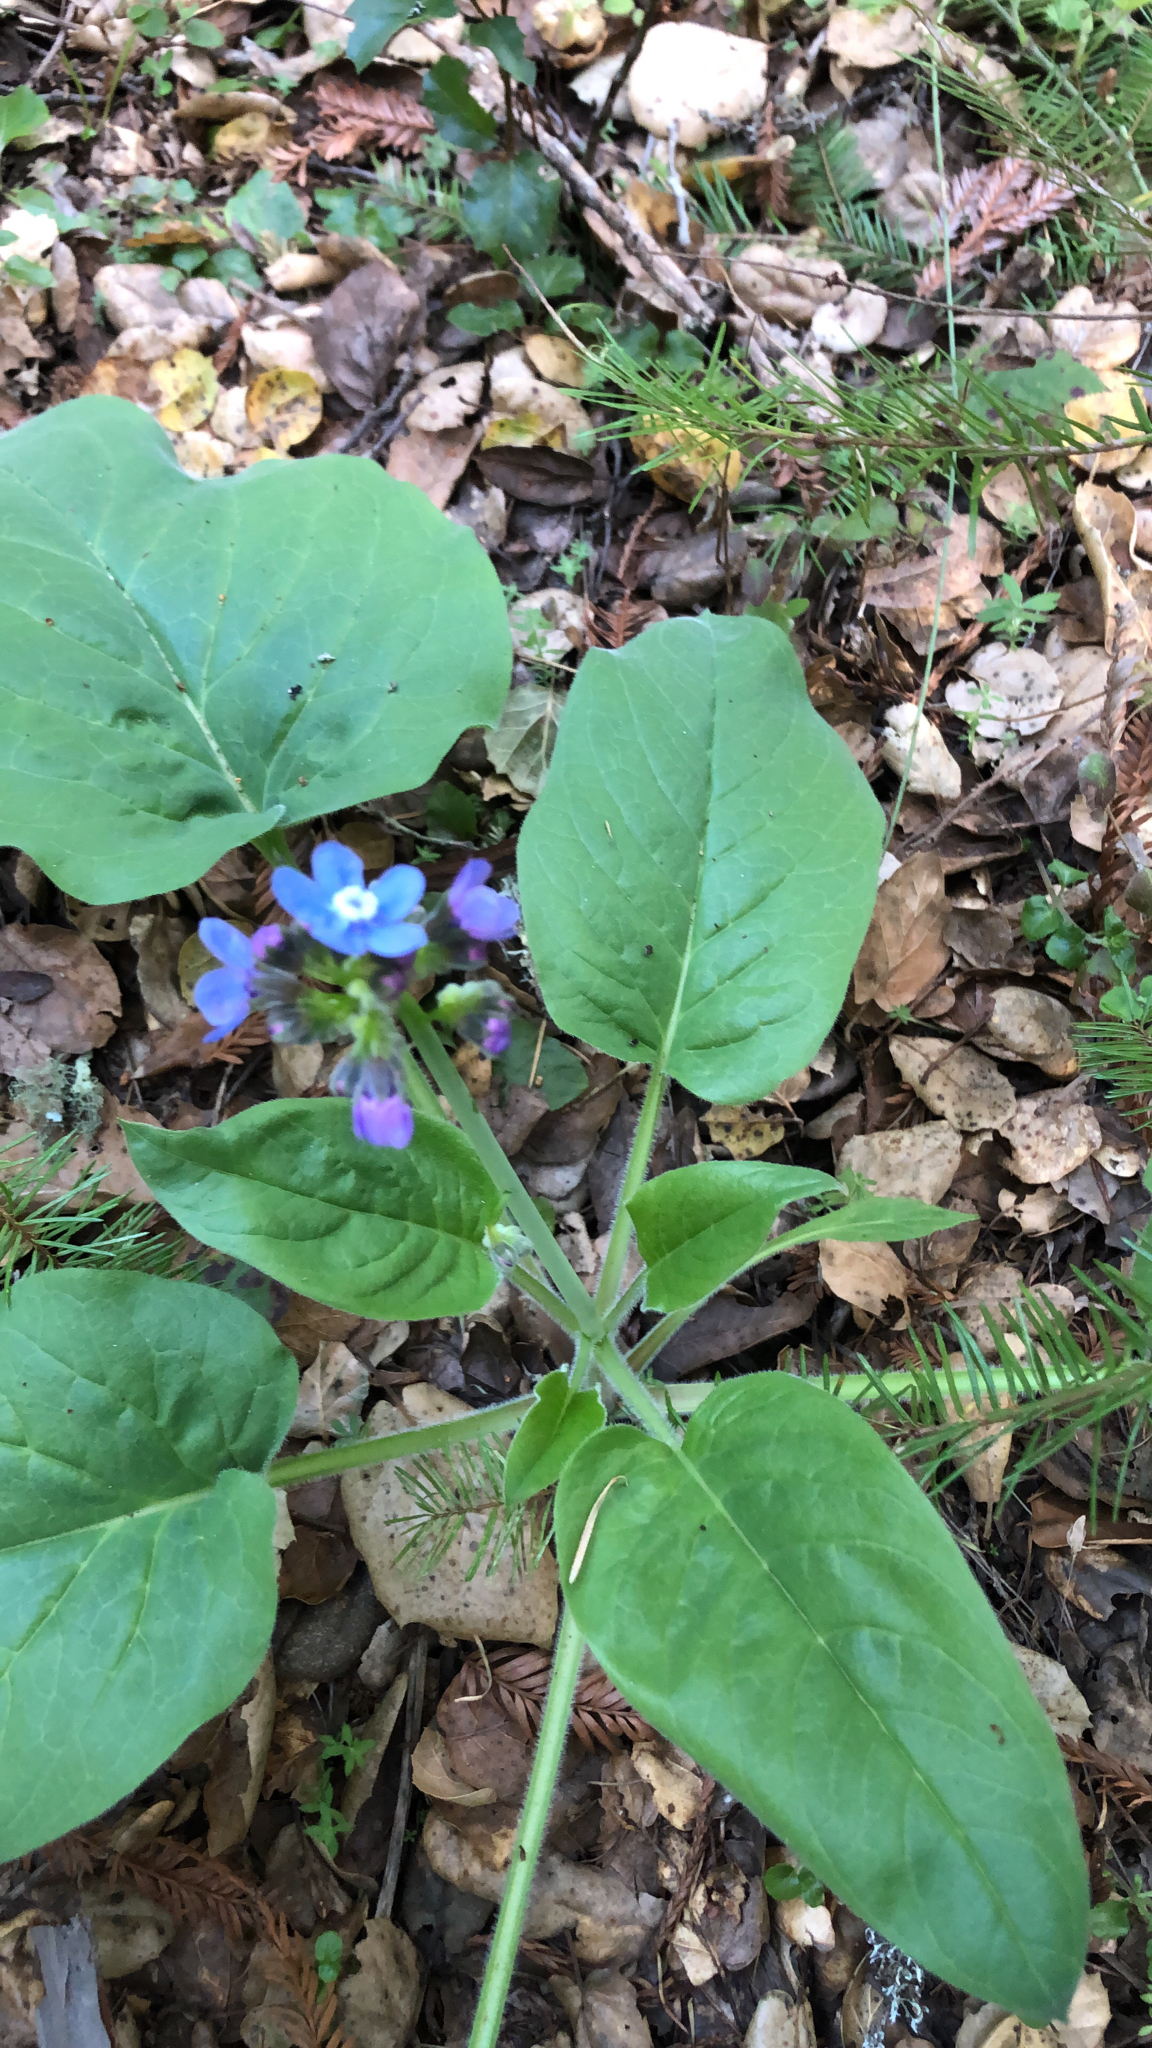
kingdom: Plantae
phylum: Tracheophyta
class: Magnoliopsida
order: Boraginales
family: Boraginaceae
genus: Adelinia
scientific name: Adelinia grande
